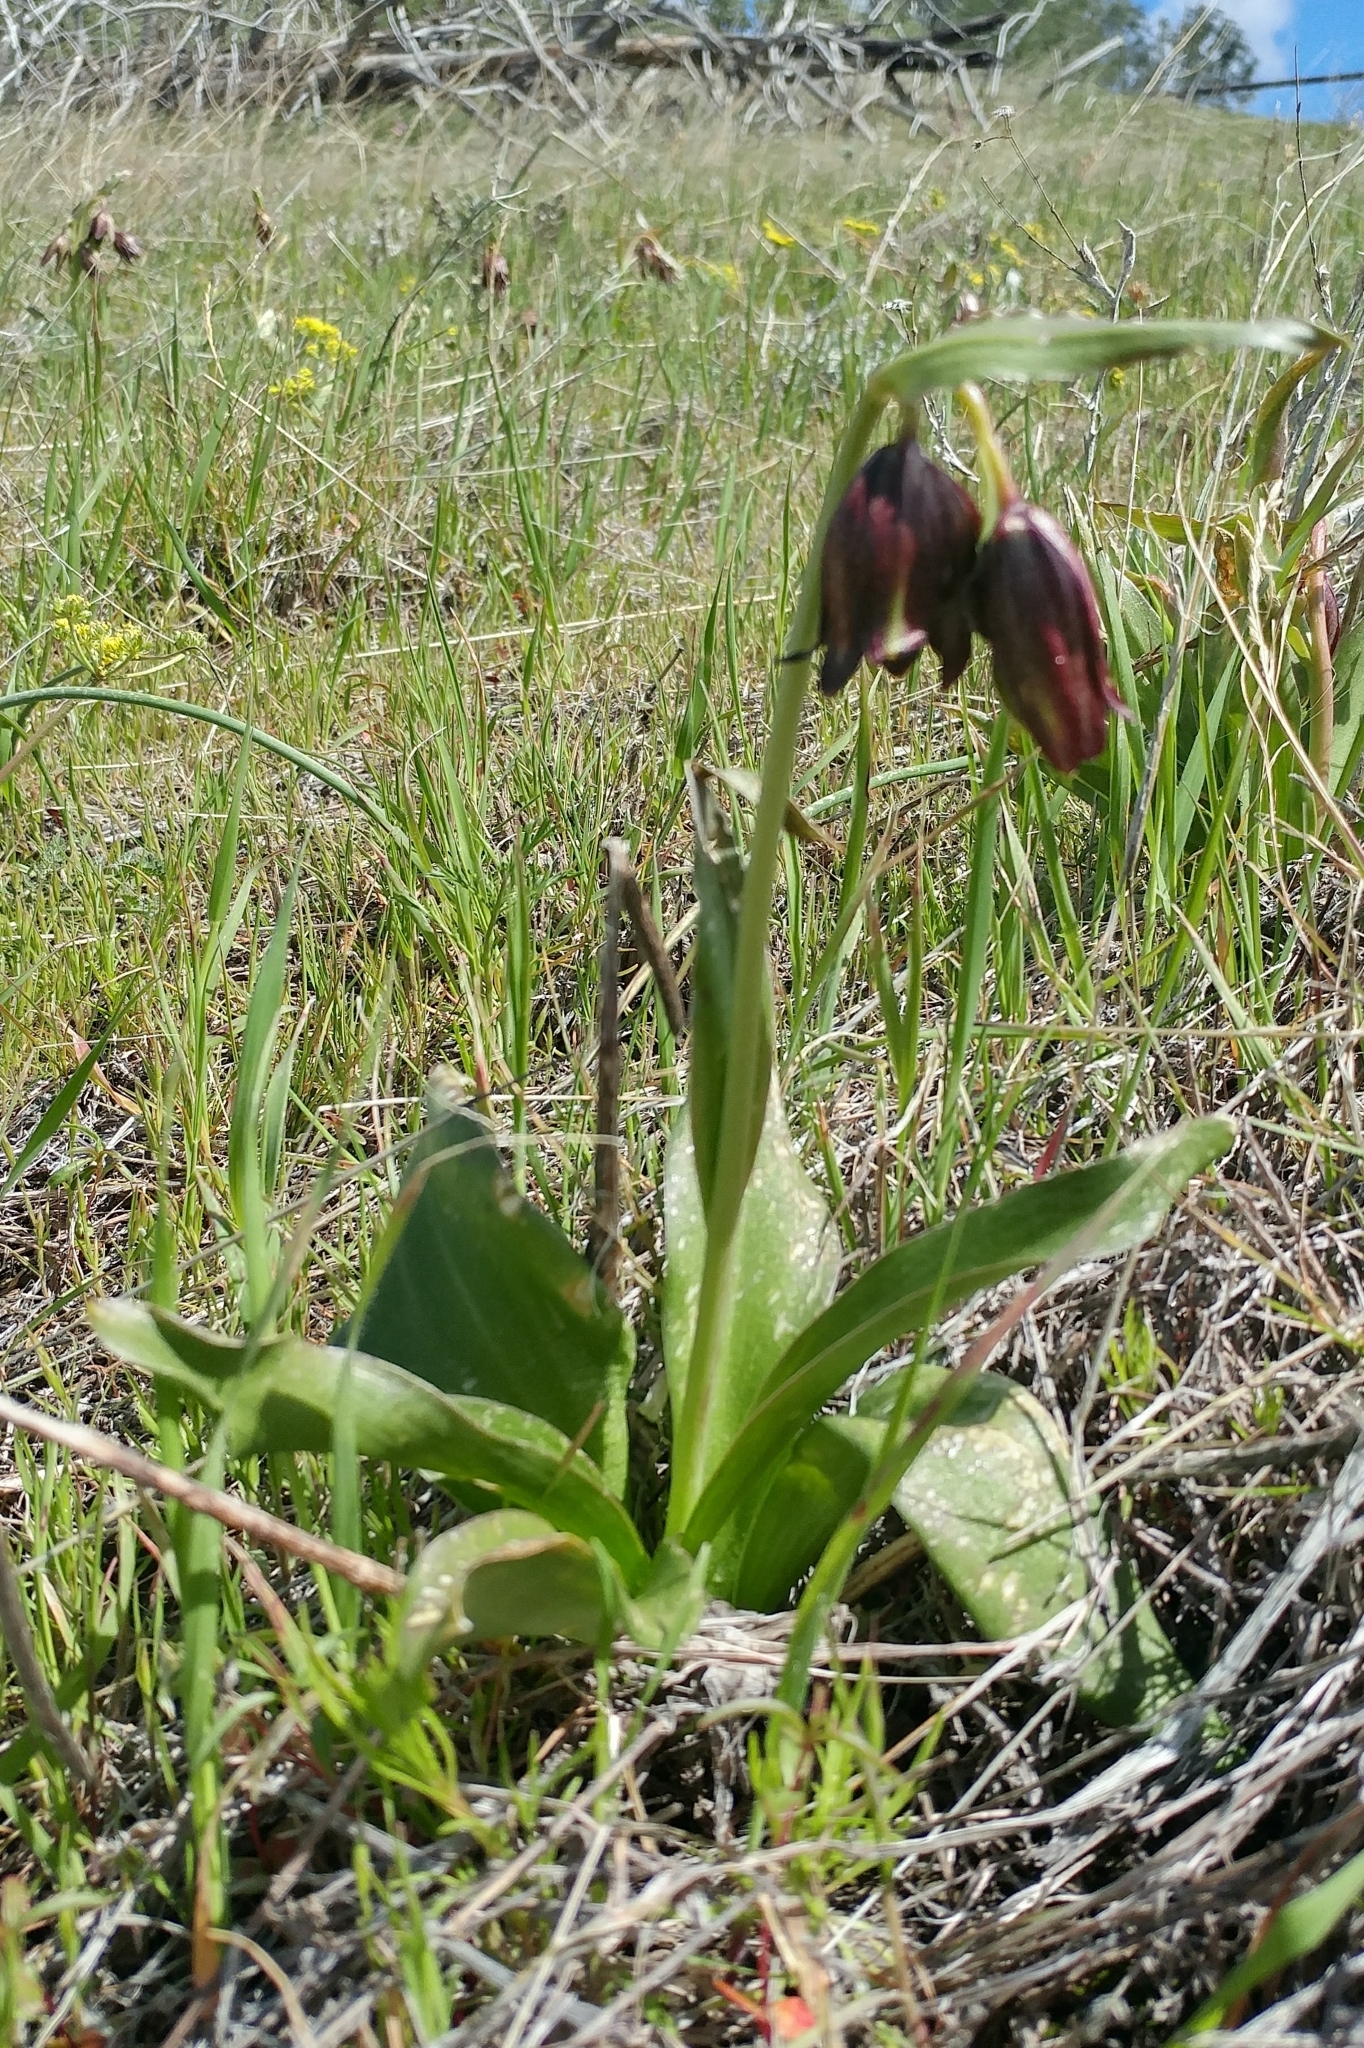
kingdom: Plantae
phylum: Tracheophyta
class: Liliopsida
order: Liliales
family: Liliaceae
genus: Fritillaria
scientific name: Fritillaria biflora
